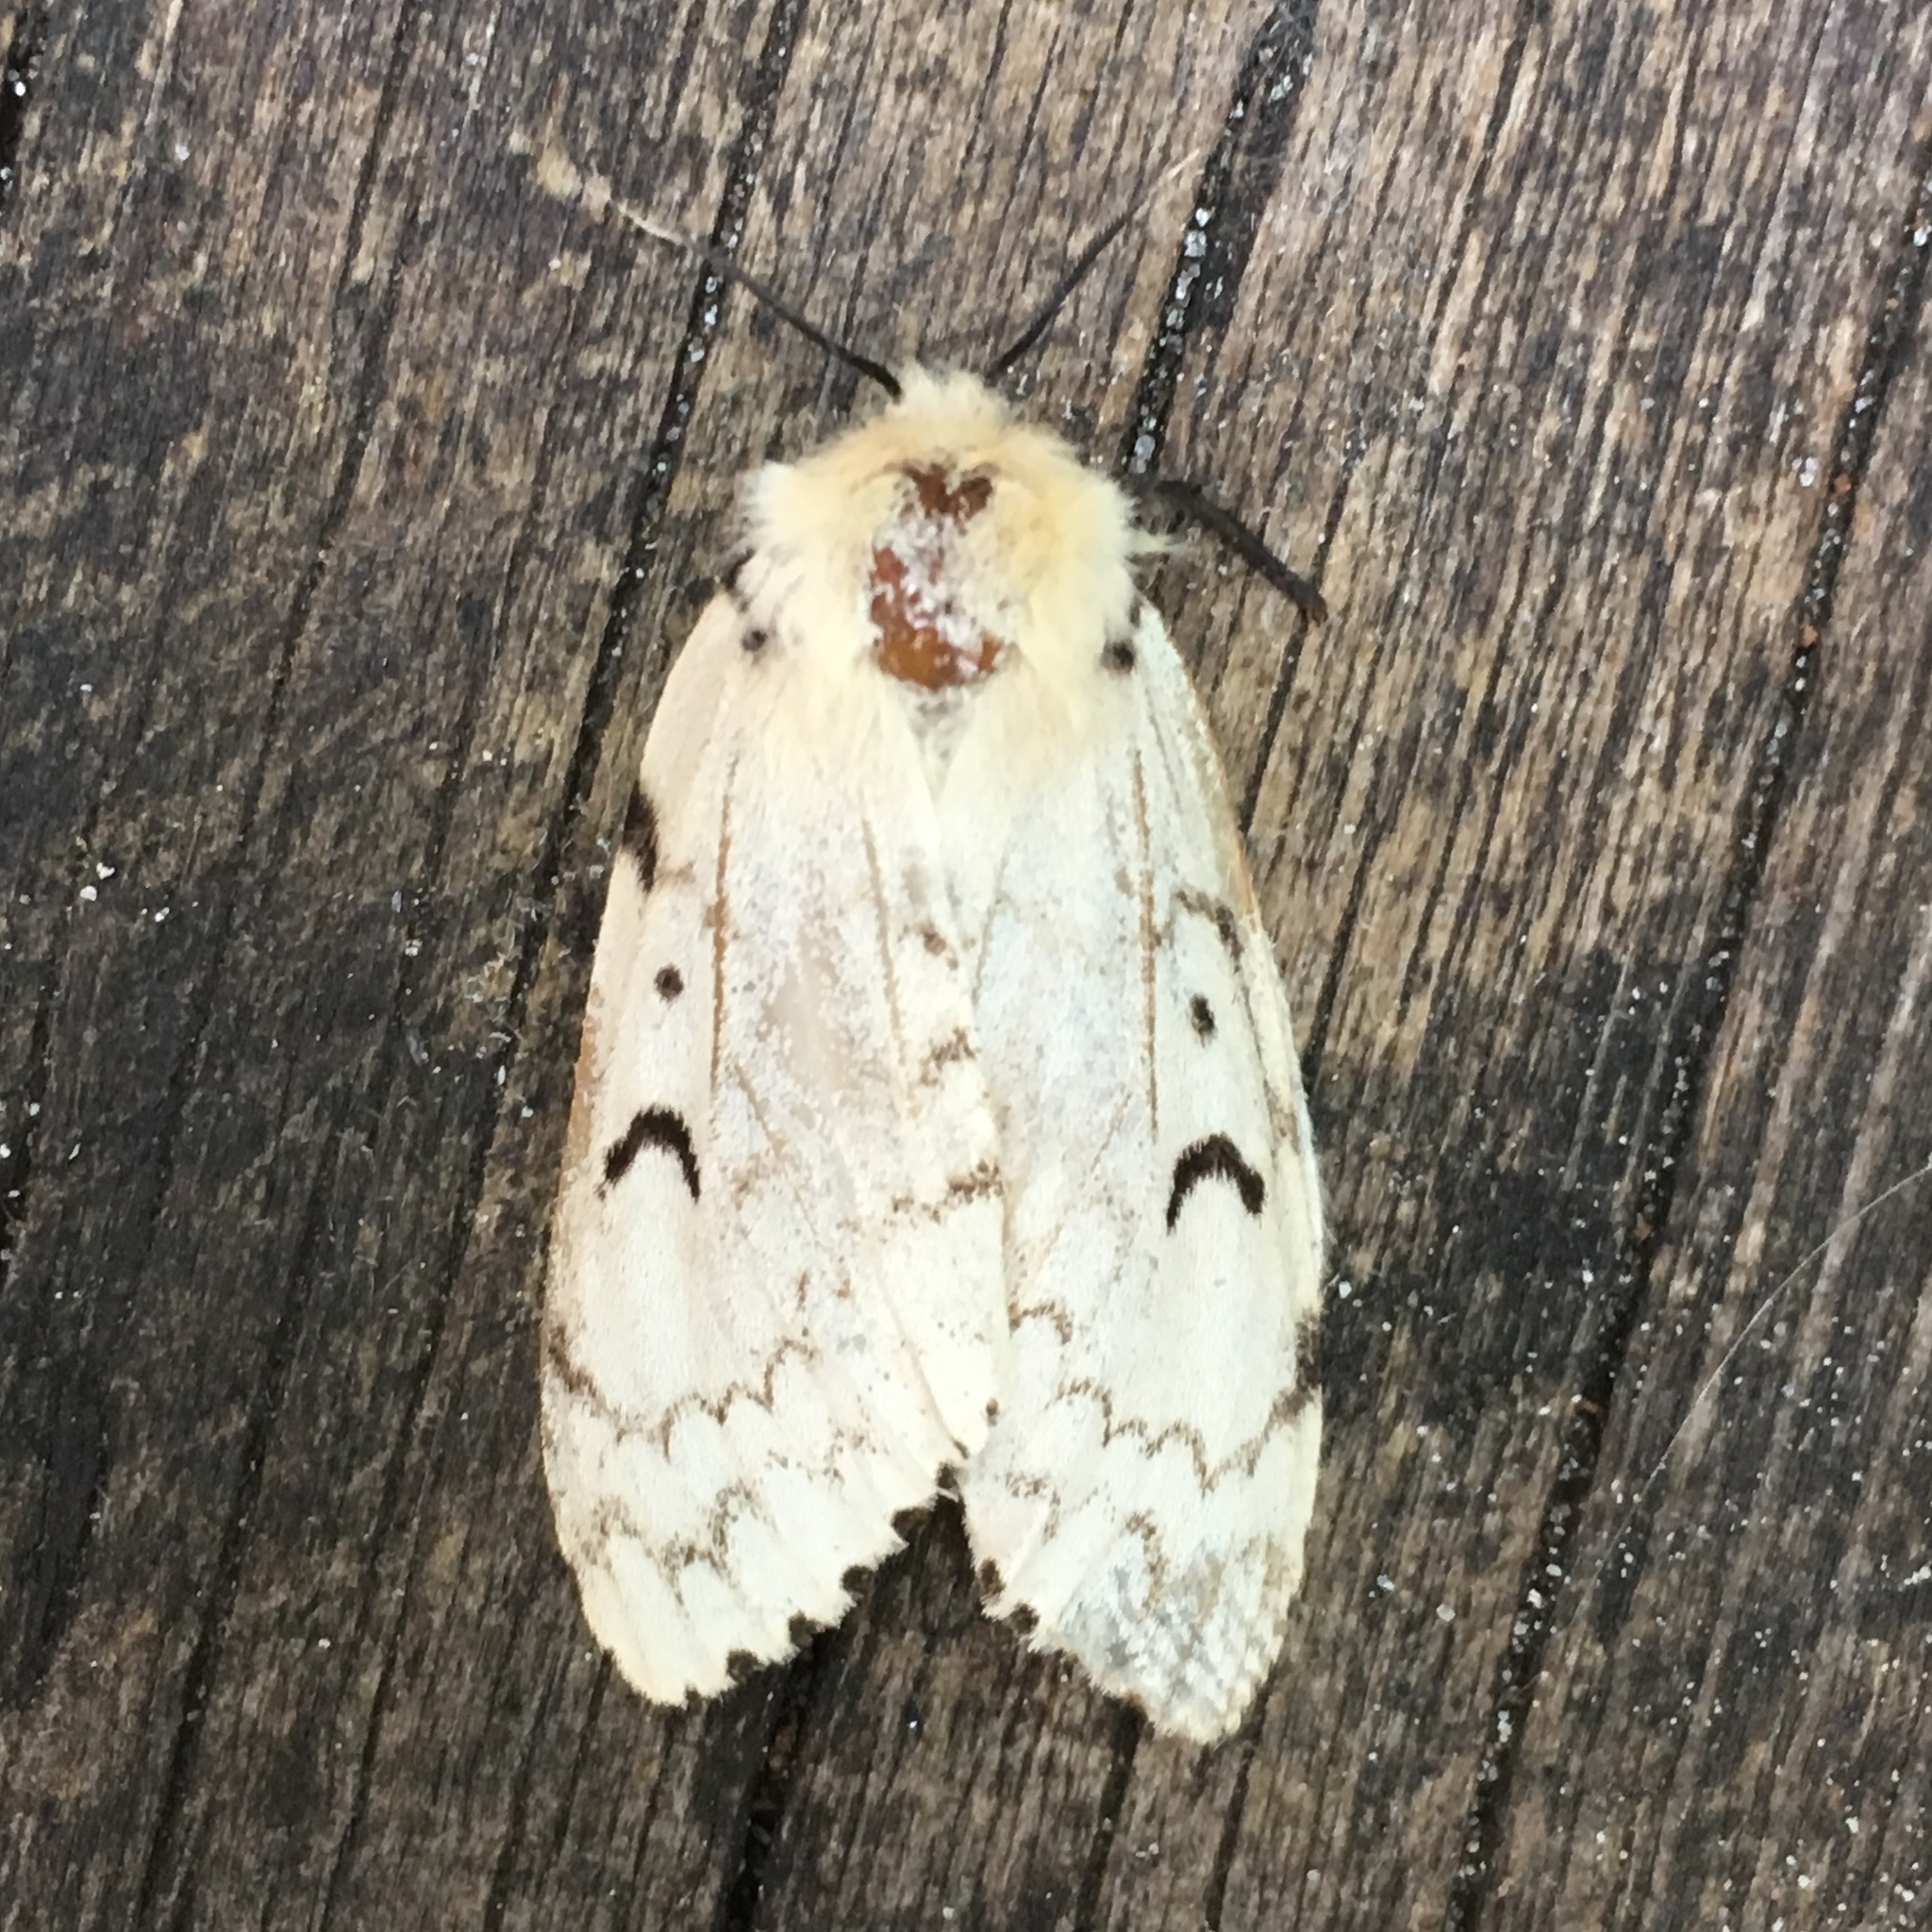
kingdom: Animalia
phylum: Arthropoda
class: Insecta
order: Lepidoptera
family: Erebidae
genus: Lymantria
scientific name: Lymantria dispar
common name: Gypsy moth
